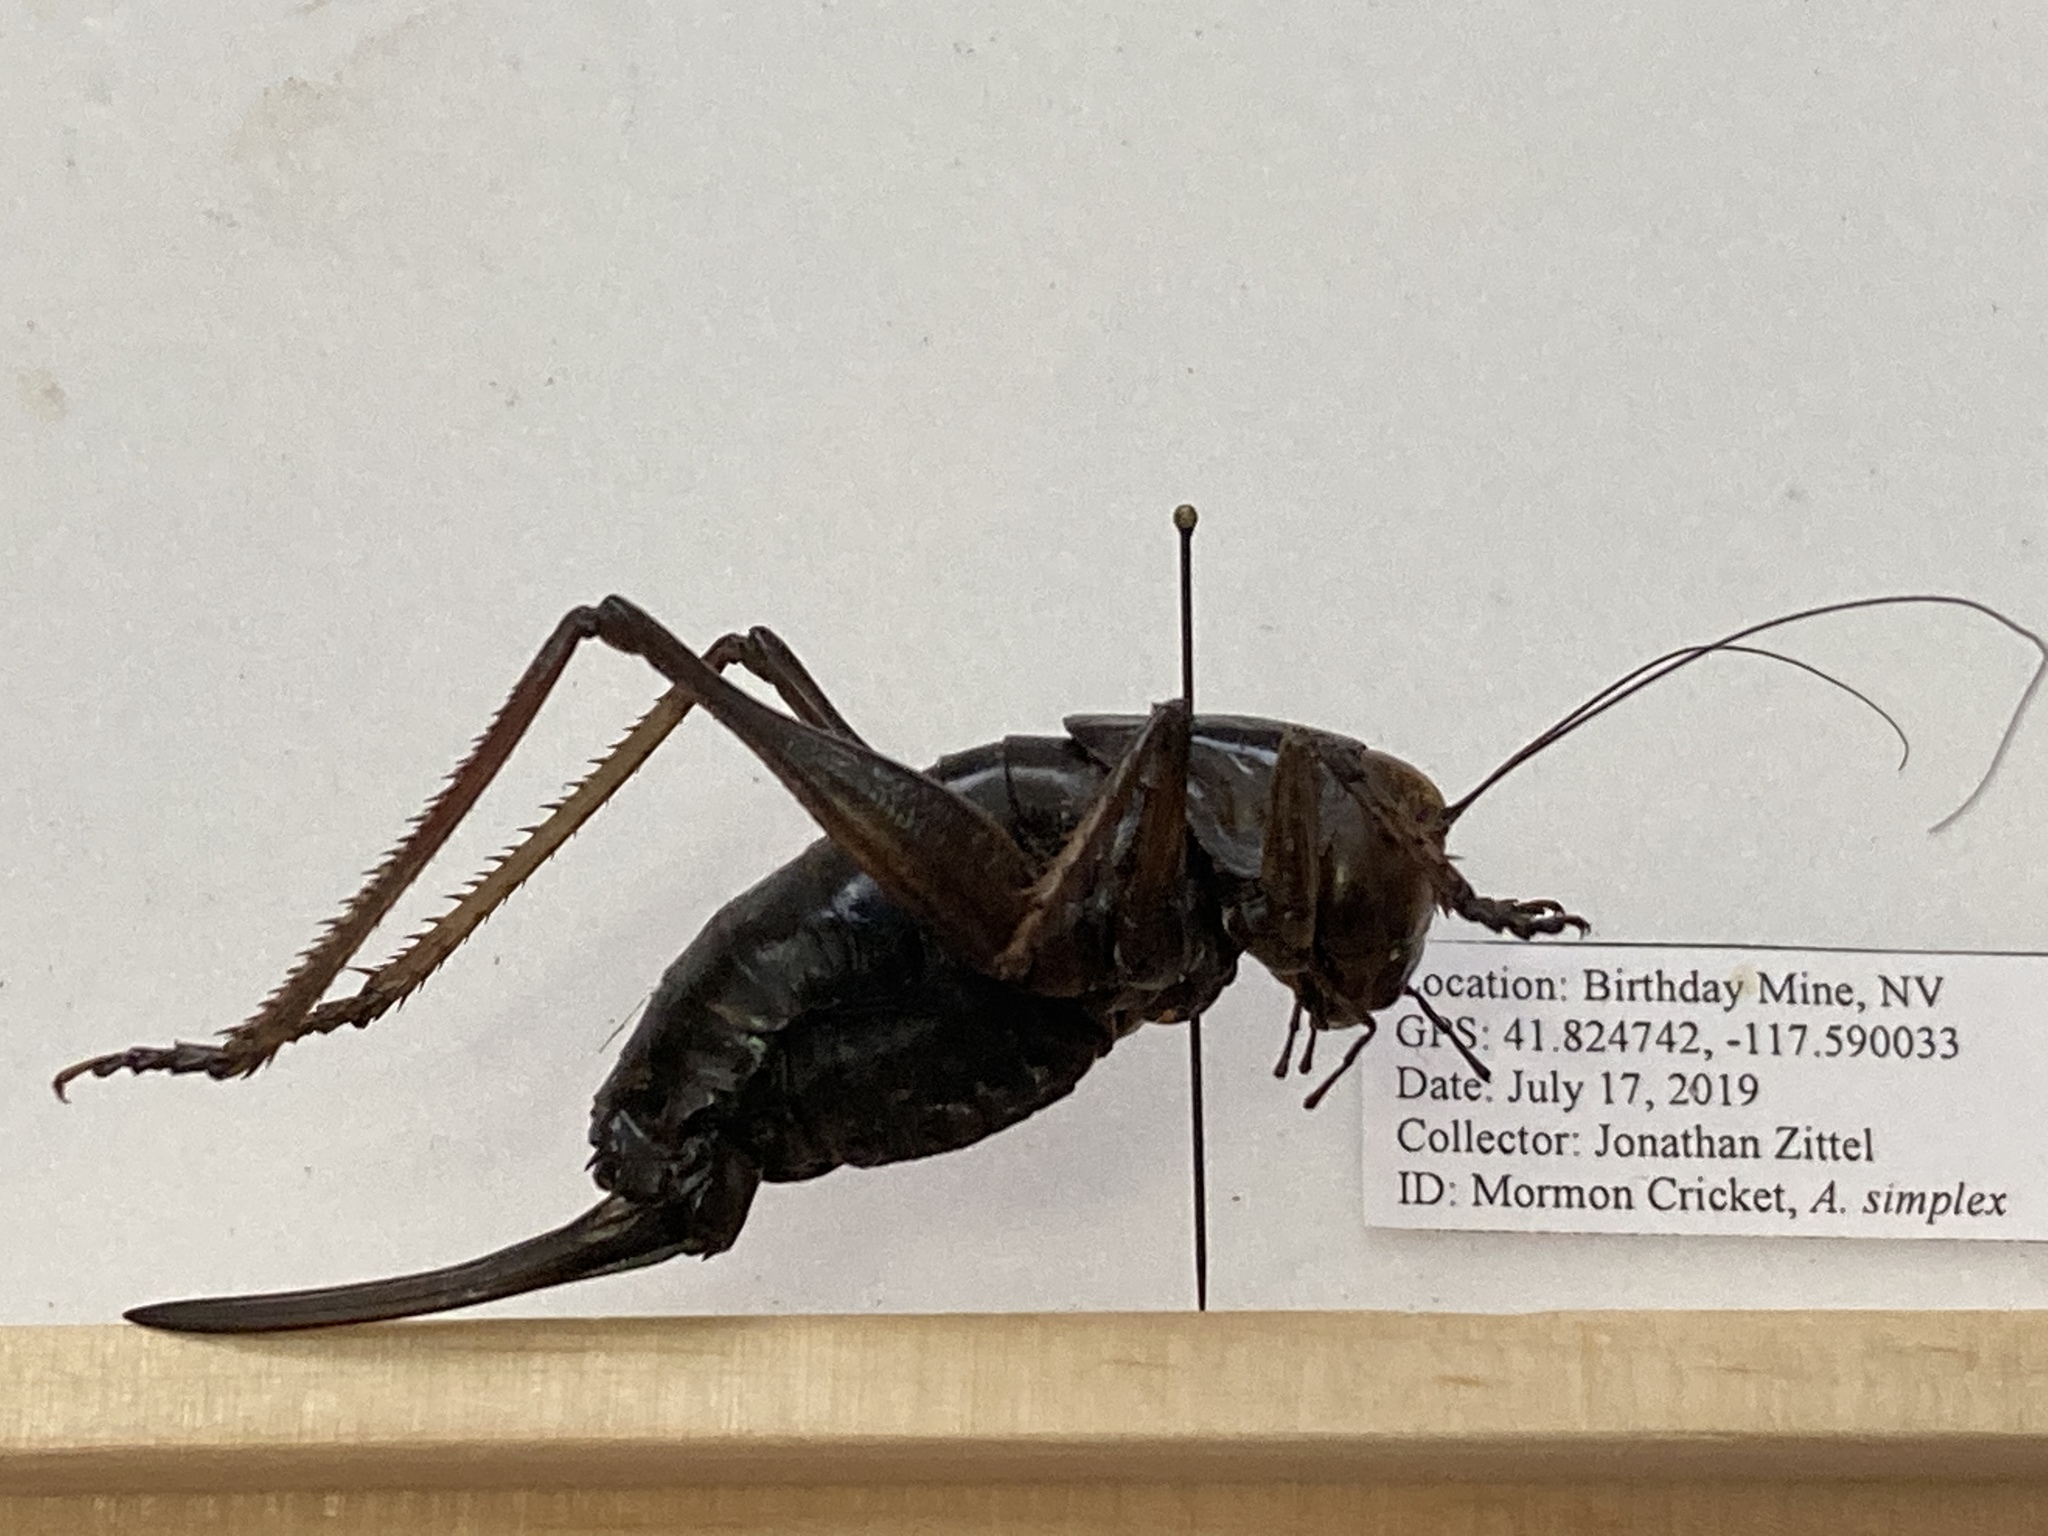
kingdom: Animalia
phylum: Arthropoda
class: Insecta
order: Orthoptera
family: Tettigoniidae
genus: Anabrus
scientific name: Anabrus simplex
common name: Mormon cricket
